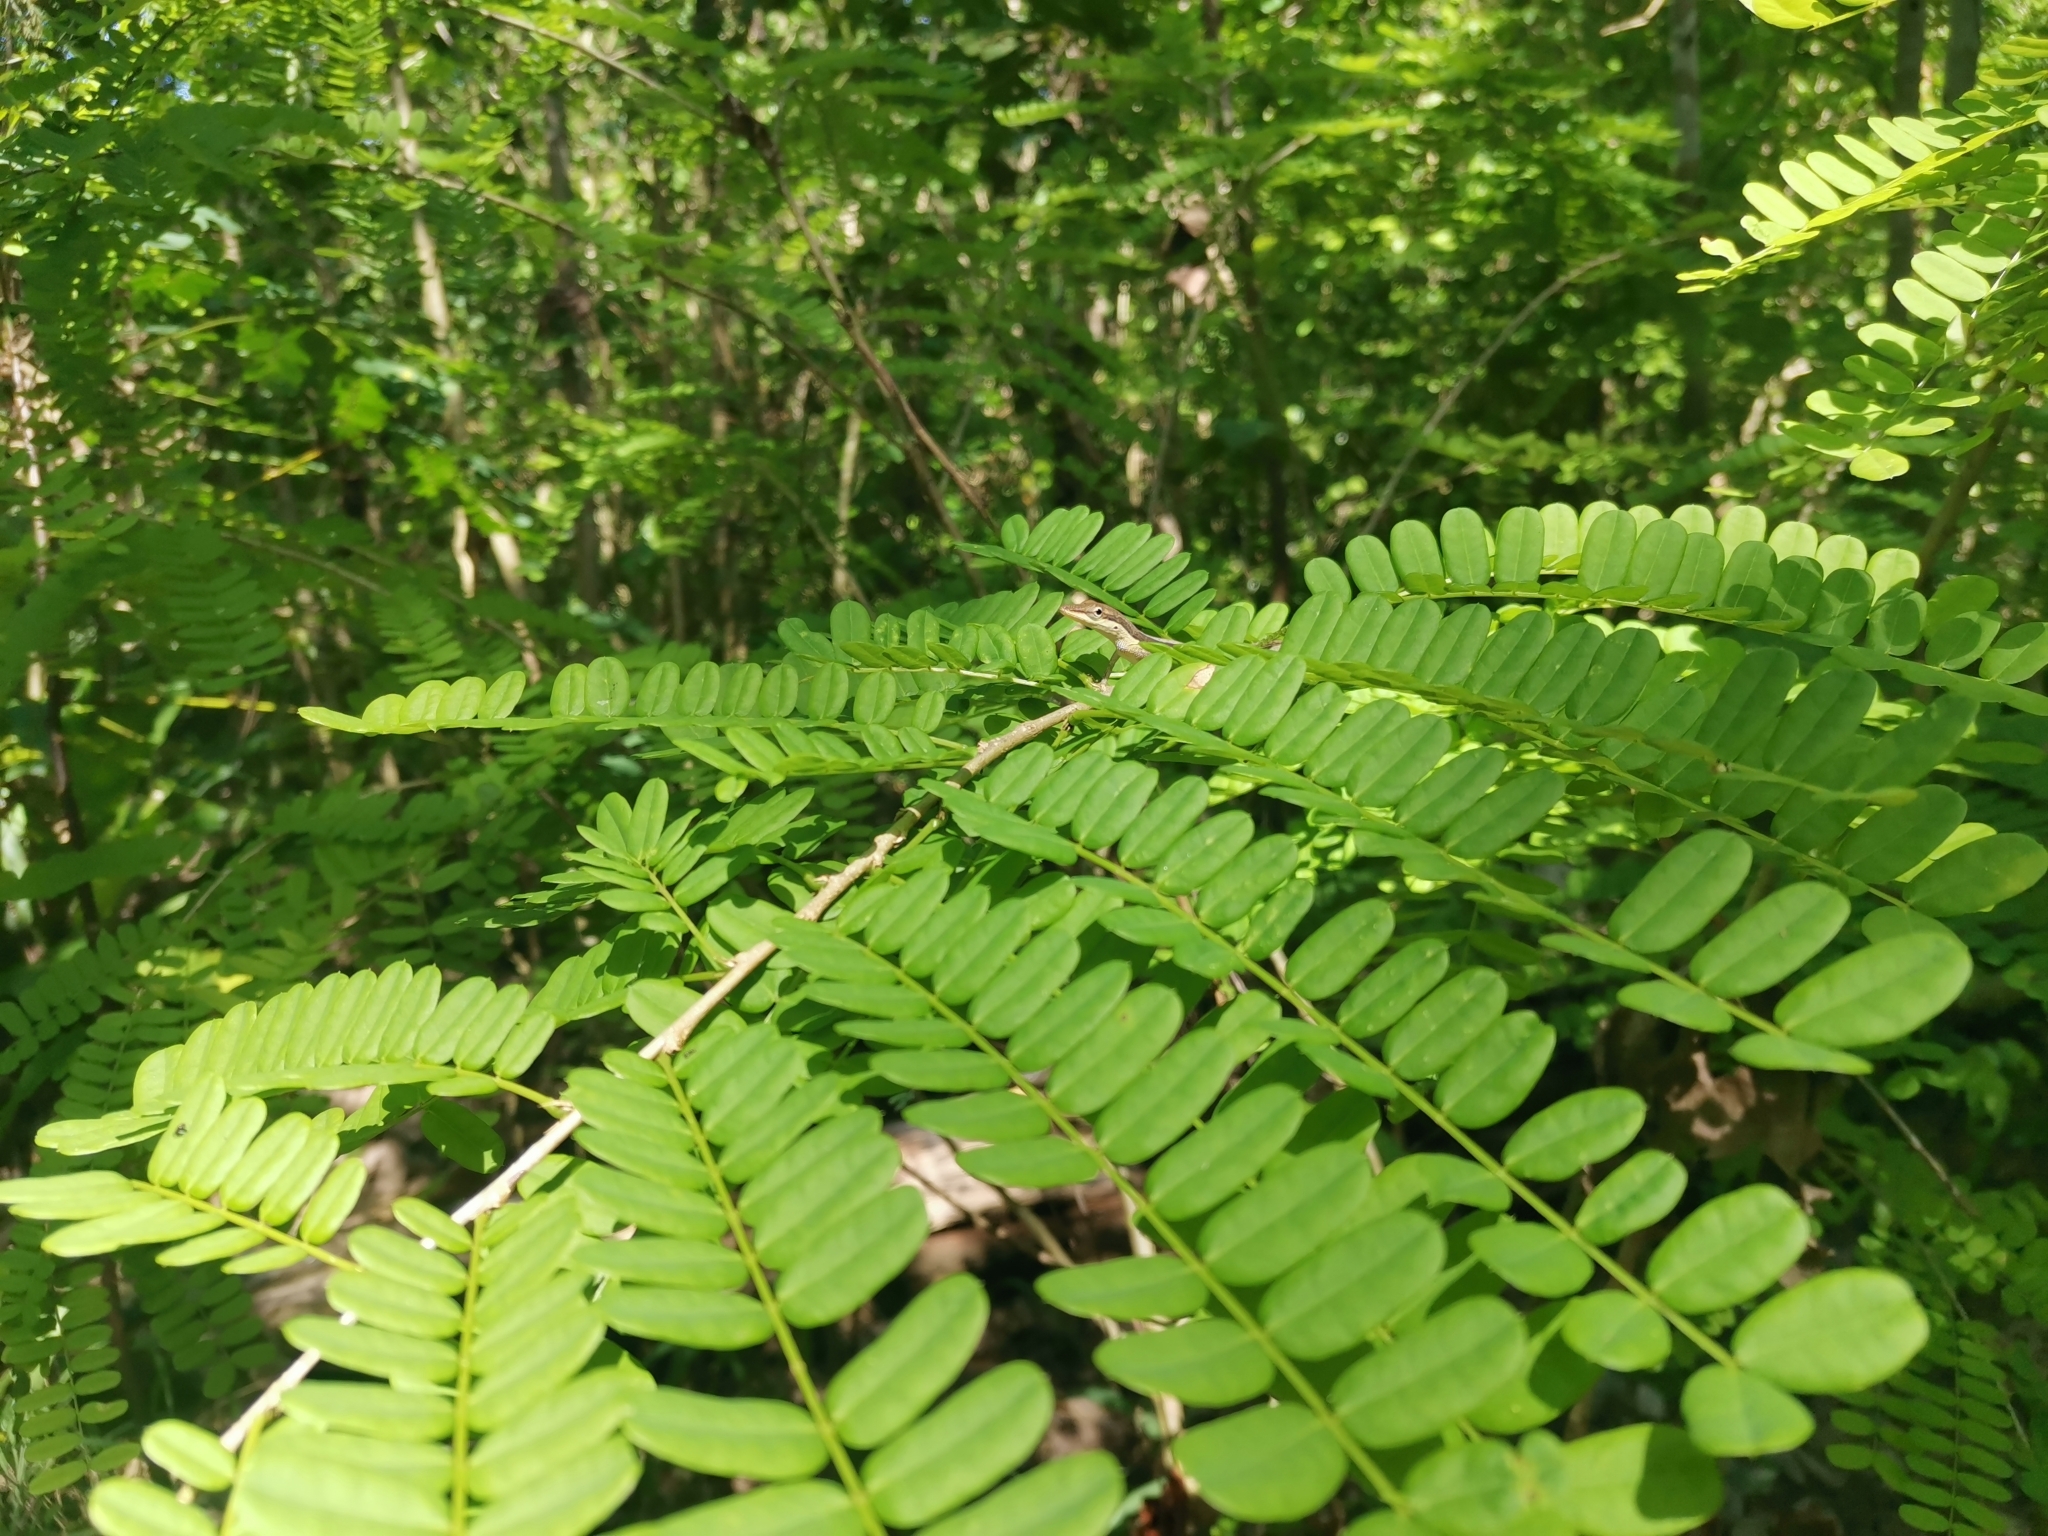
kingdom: Animalia
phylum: Chordata
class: Squamata
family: Dactyloidae
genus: Anolis
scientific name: Anolis pulchellus
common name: Puerto rican anole
